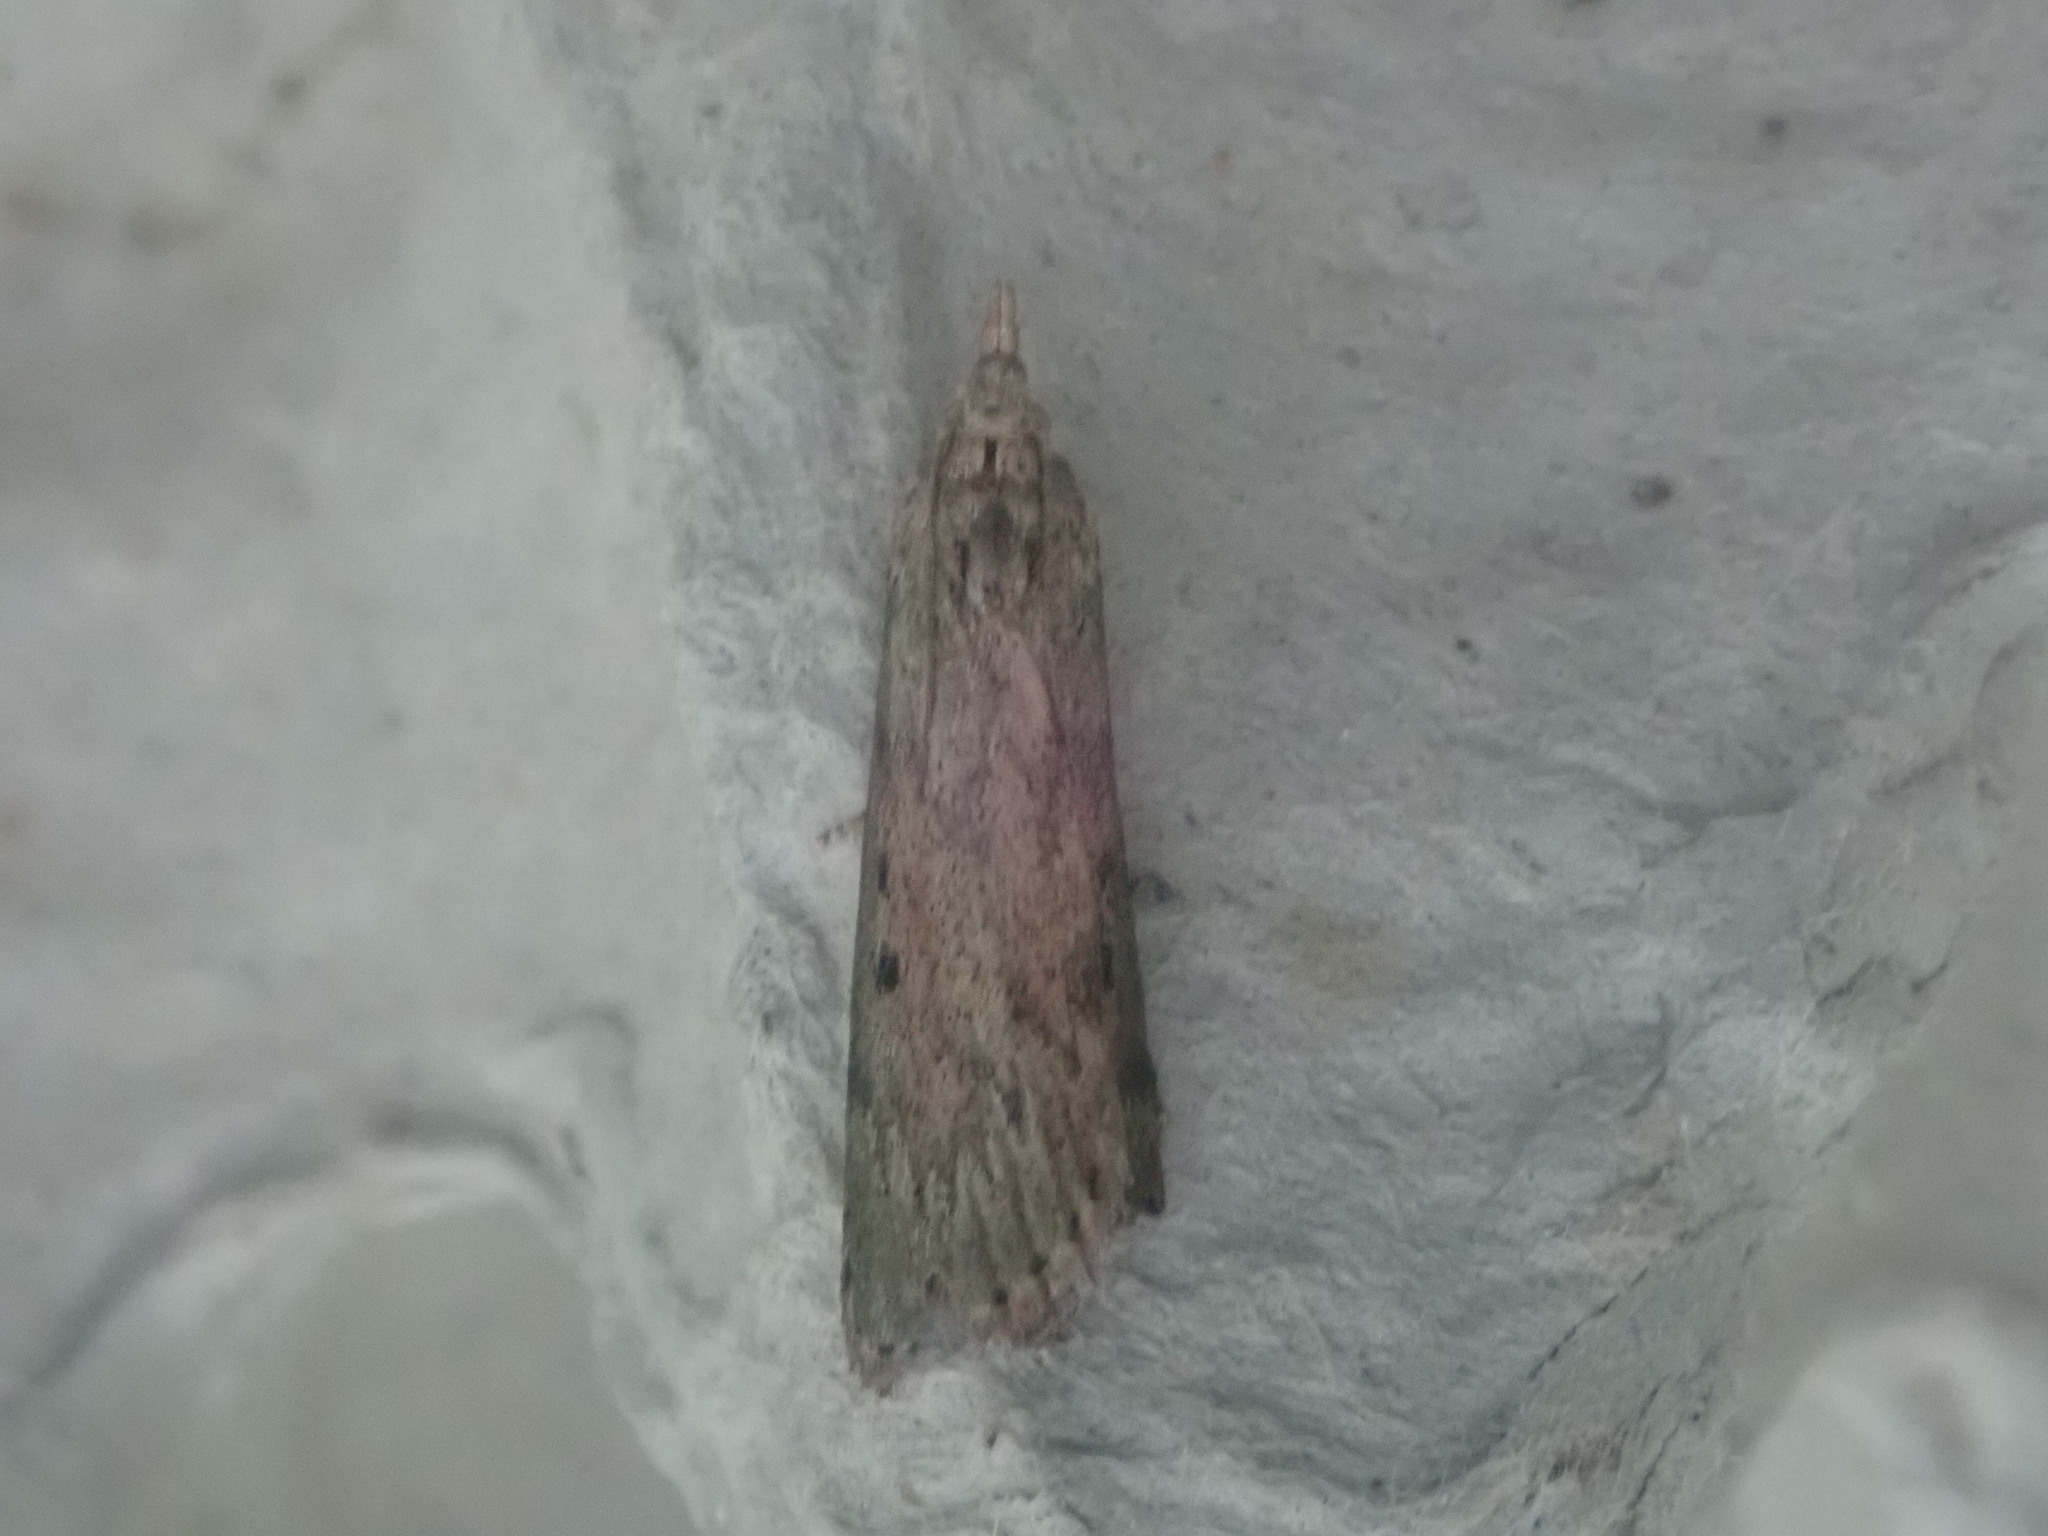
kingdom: Animalia
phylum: Arthropoda
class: Insecta
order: Lepidoptera
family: Pyralidae
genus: Aphomia
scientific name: Aphomia sociella
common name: Bee moth
